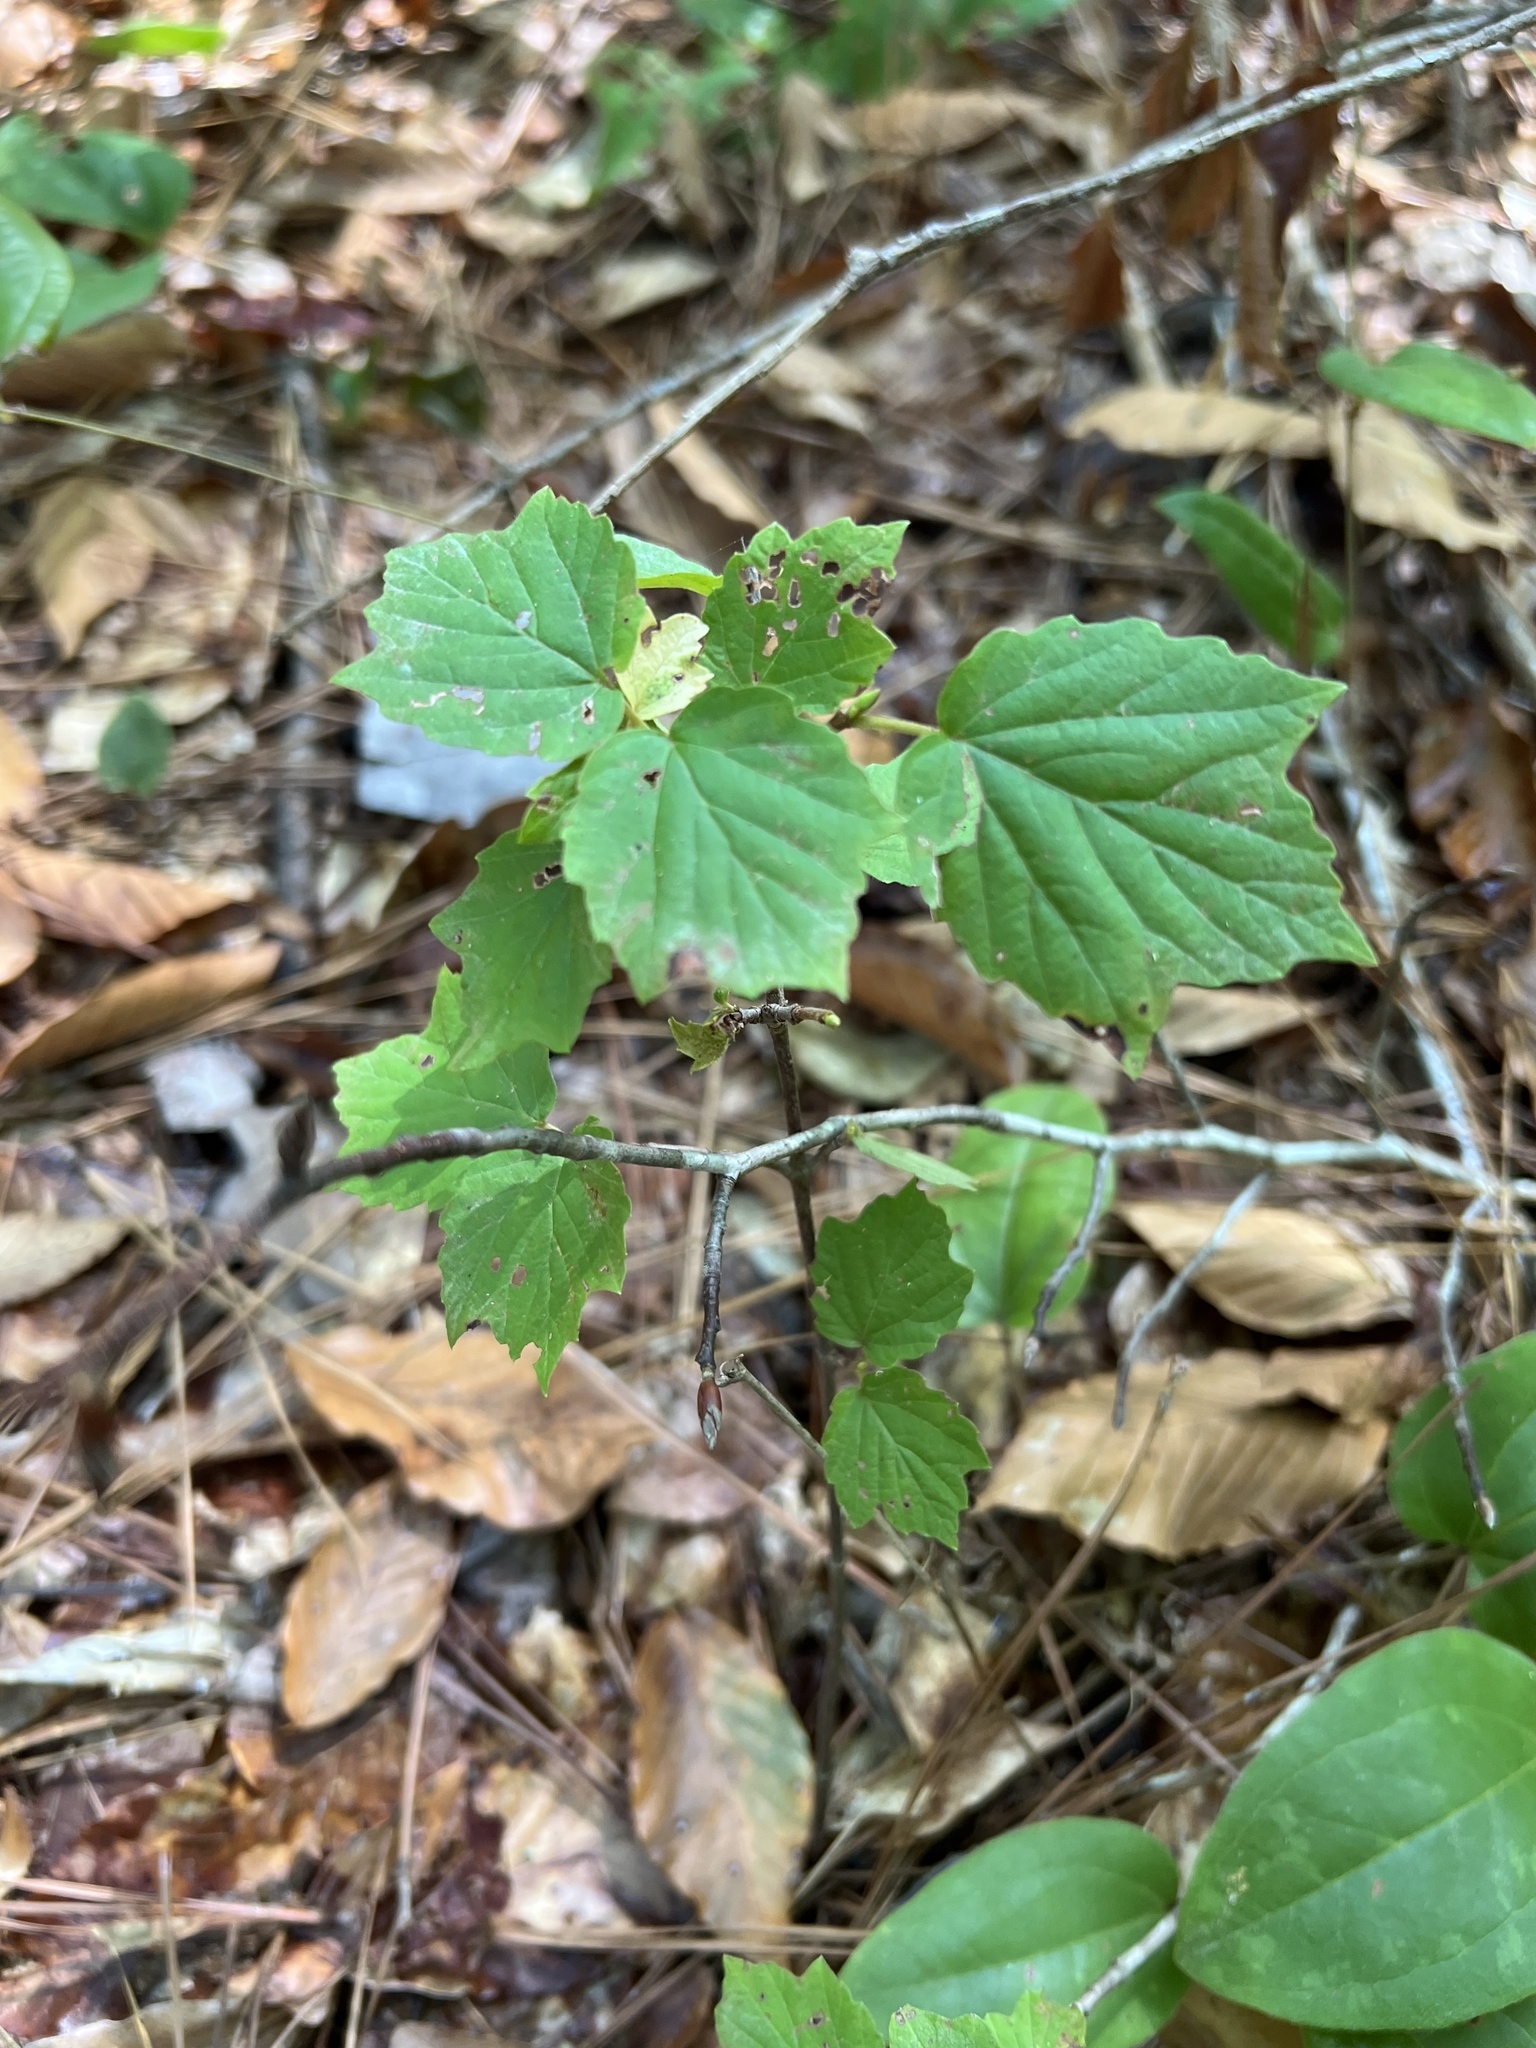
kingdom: Plantae
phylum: Tracheophyta
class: Magnoliopsida
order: Dipsacales
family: Viburnaceae
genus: Viburnum
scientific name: Viburnum acerifolium
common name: Dockmackie
